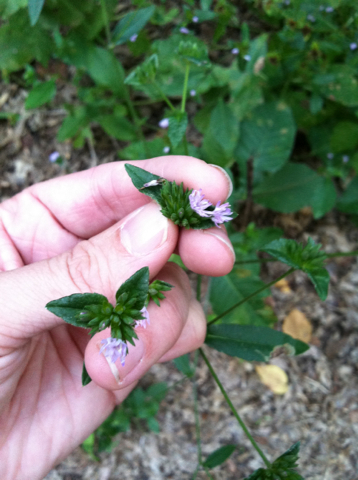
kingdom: Plantae
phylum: Tracheophyta
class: Magnoliopsida
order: Asterales
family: Asteraceae
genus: Elephantopus
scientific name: Elephantopus carolinianus
